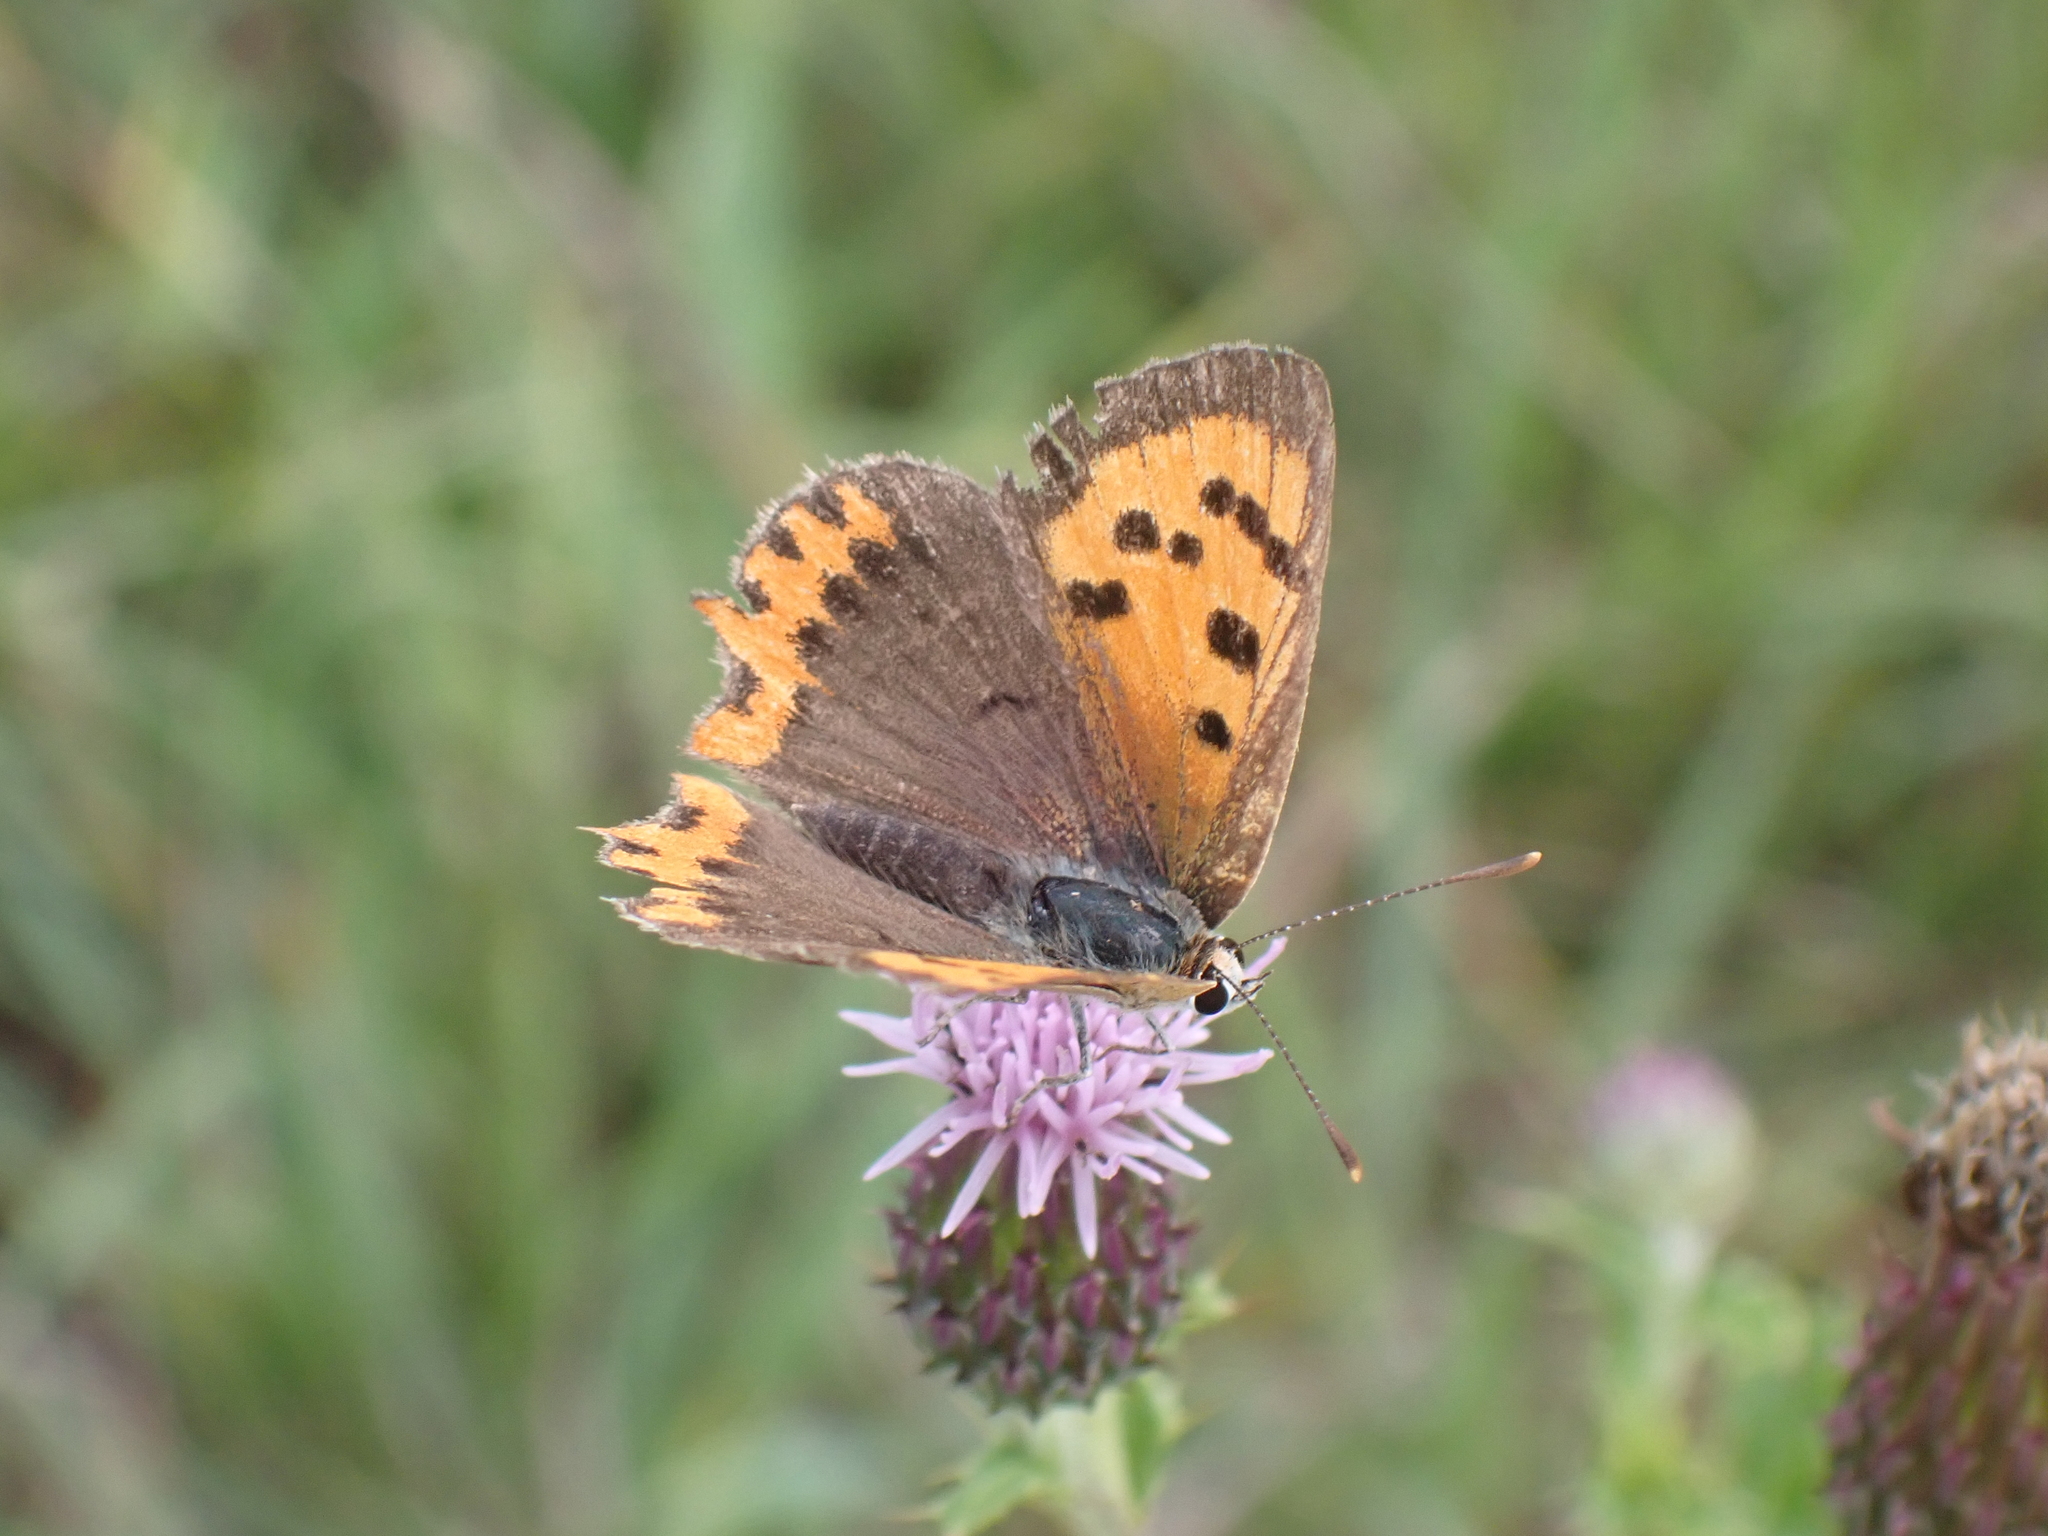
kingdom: Animalia
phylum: Arthropoda
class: Insecta
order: Lepidoptera
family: Lycaenidae
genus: Lycaena
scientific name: Lycaena phlaeas
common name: Small copper
